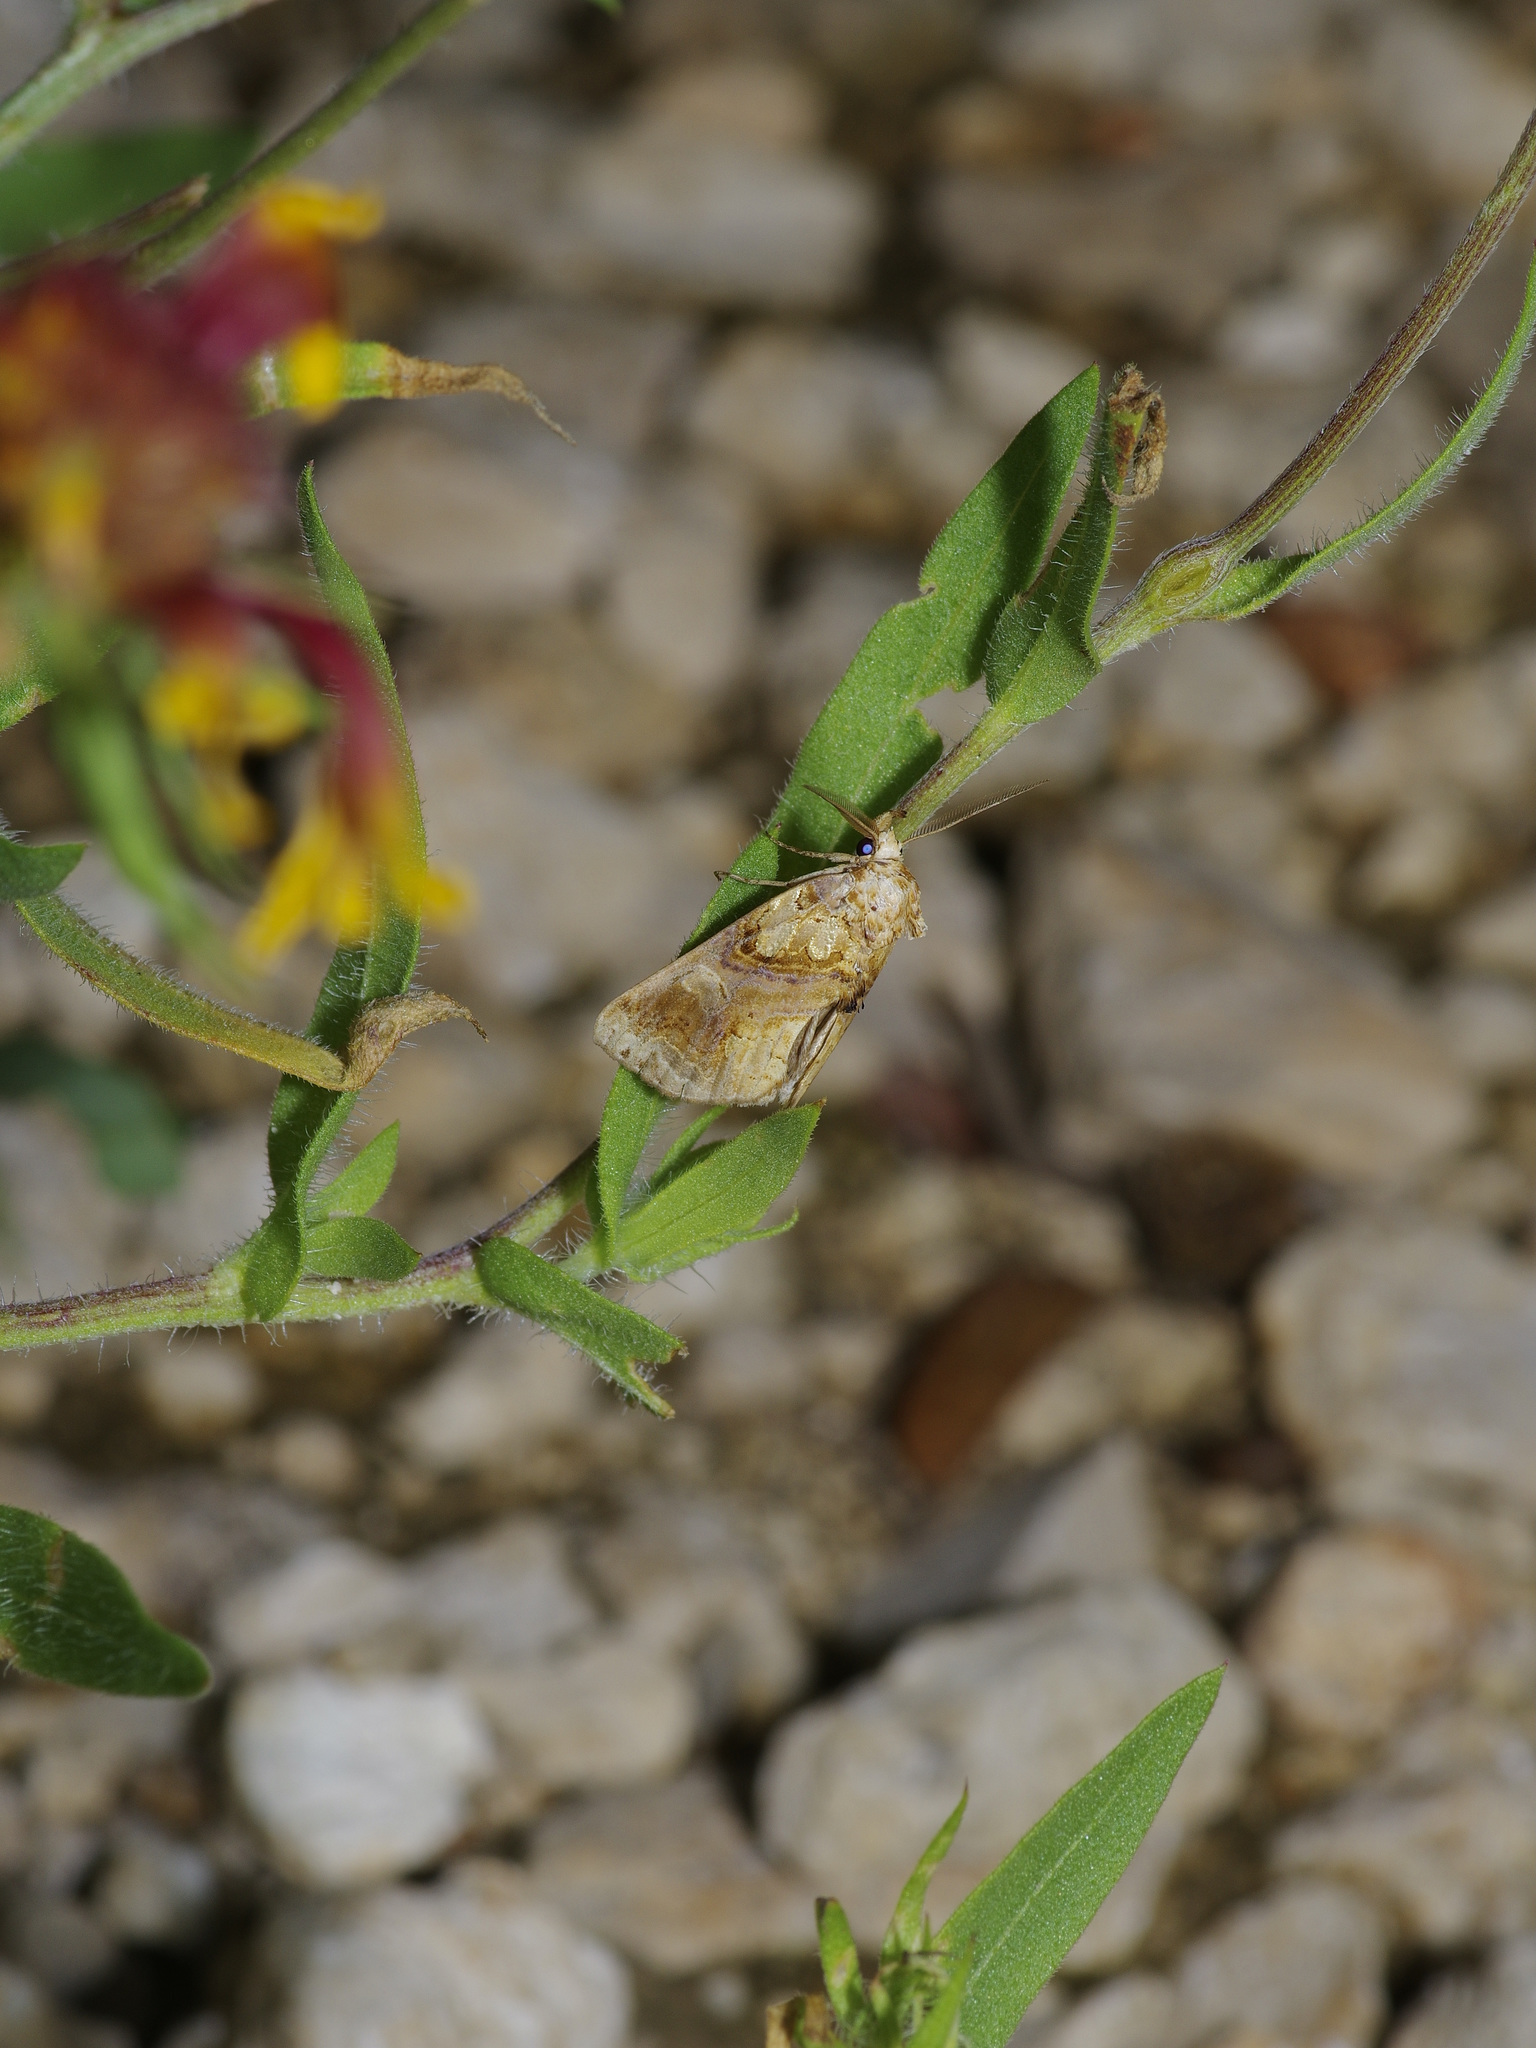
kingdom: Animalia
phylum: Arthropoda
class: Insecta
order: Lepidoptera
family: Erebidae
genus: Plusiodonta
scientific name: Plusiodonta compressipalpis
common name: Moonseed moth
